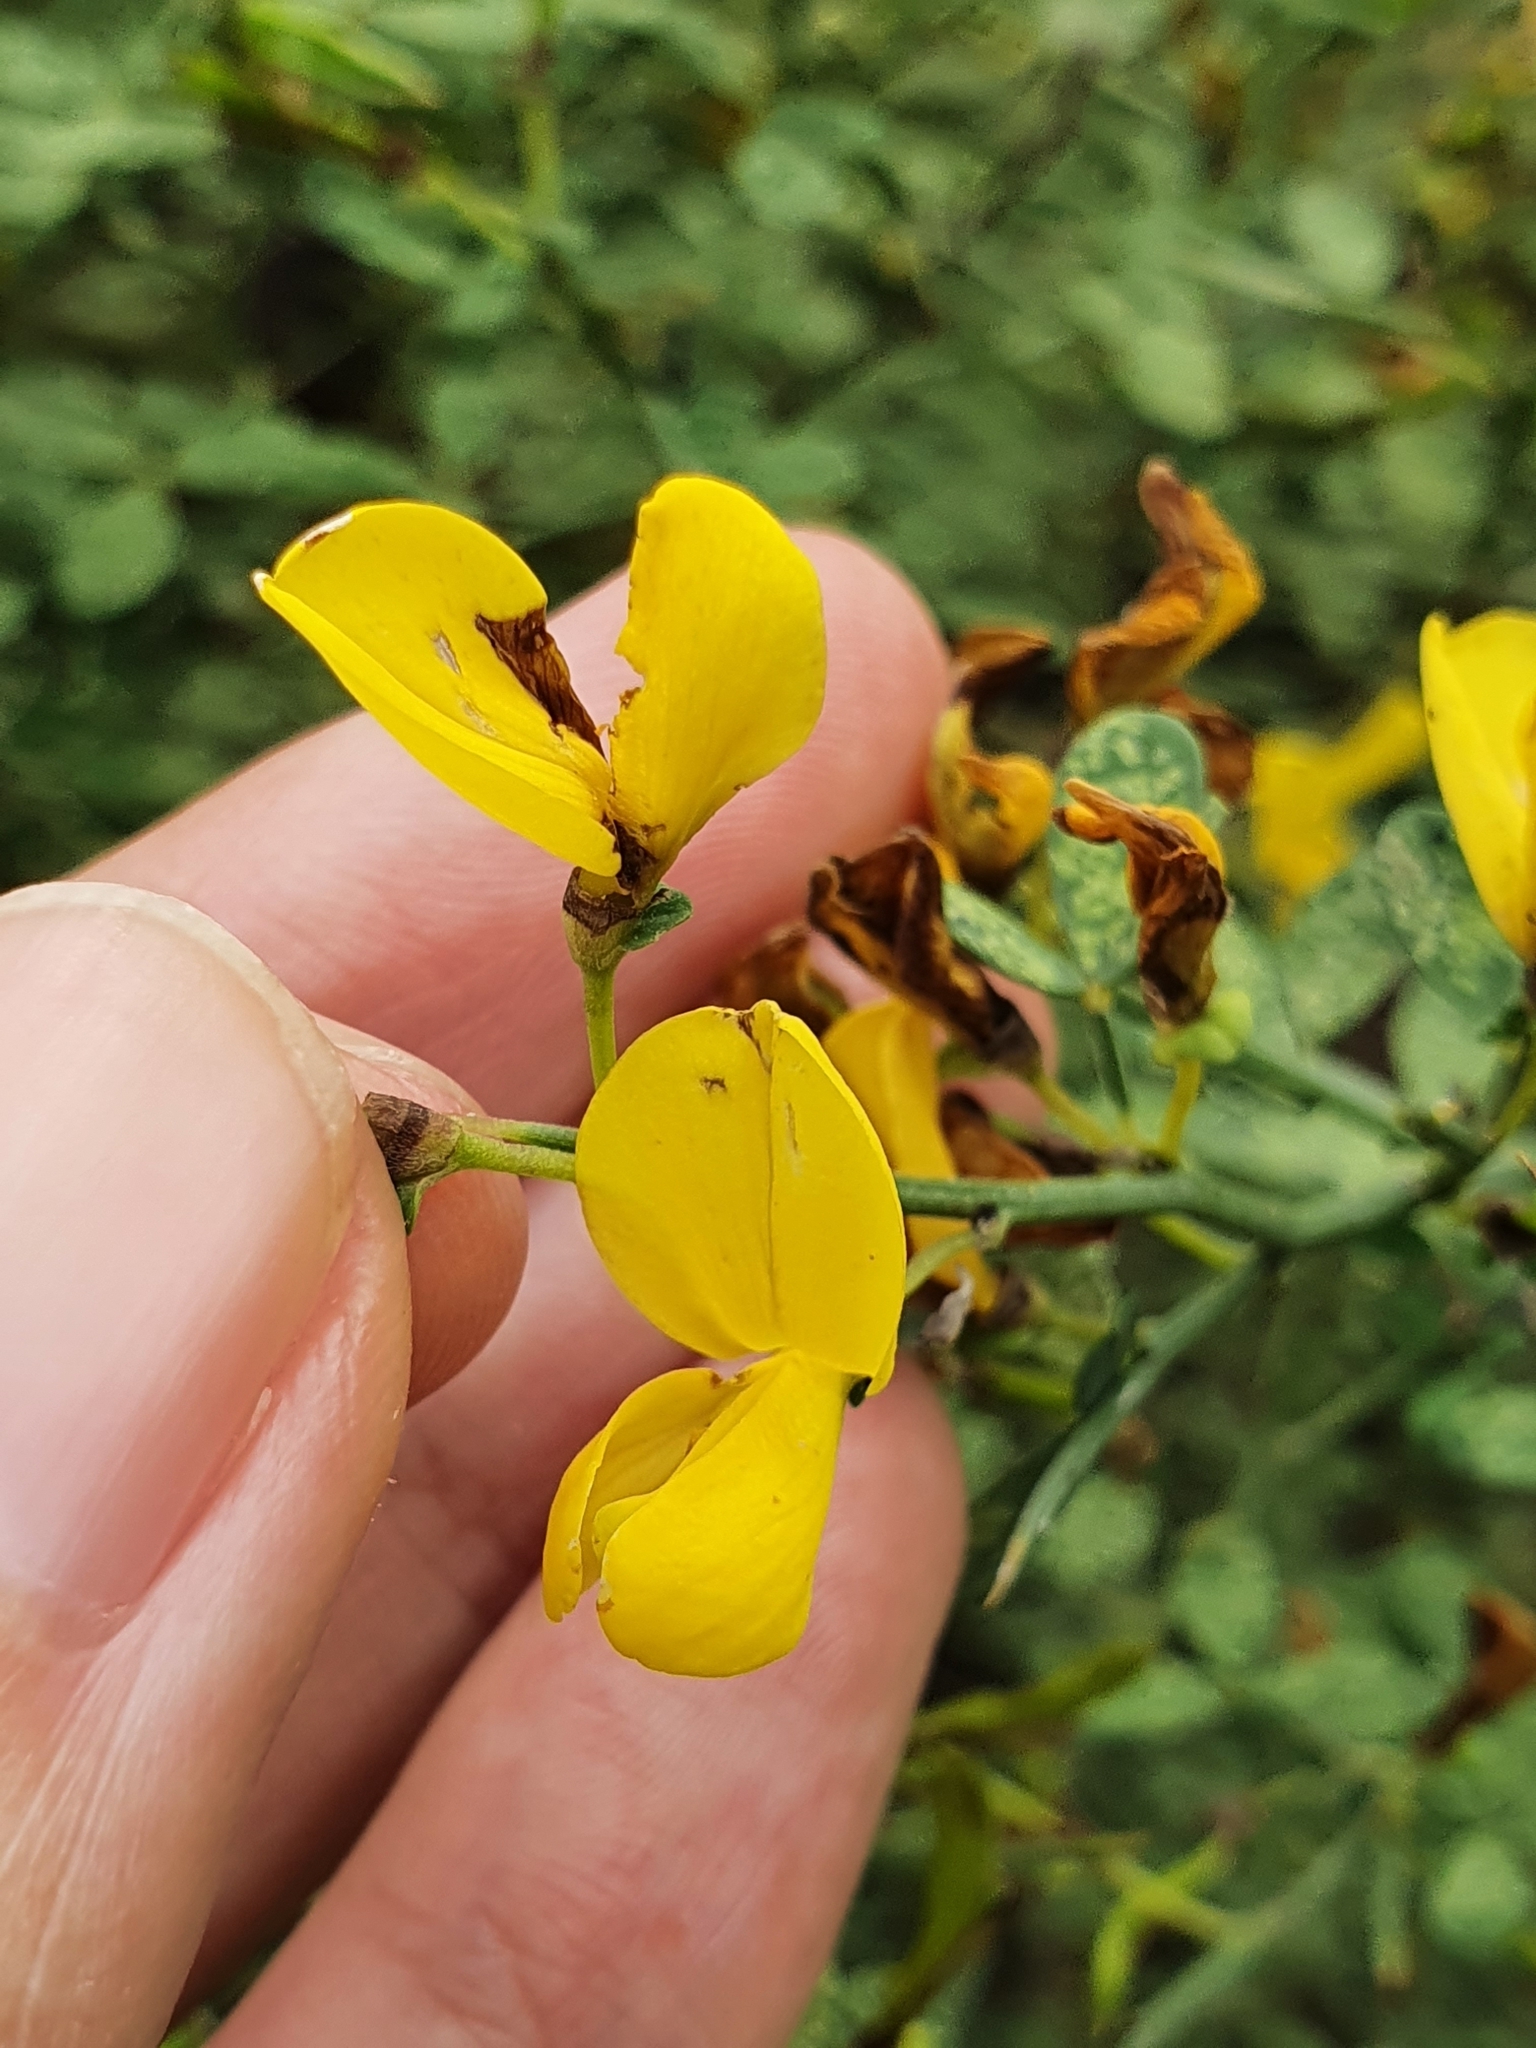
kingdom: Plantae
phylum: Tracheophyta
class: Magnoliopsida
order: Fabales
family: Fabaceae
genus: Calicotome
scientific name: Calicotome spinosa
